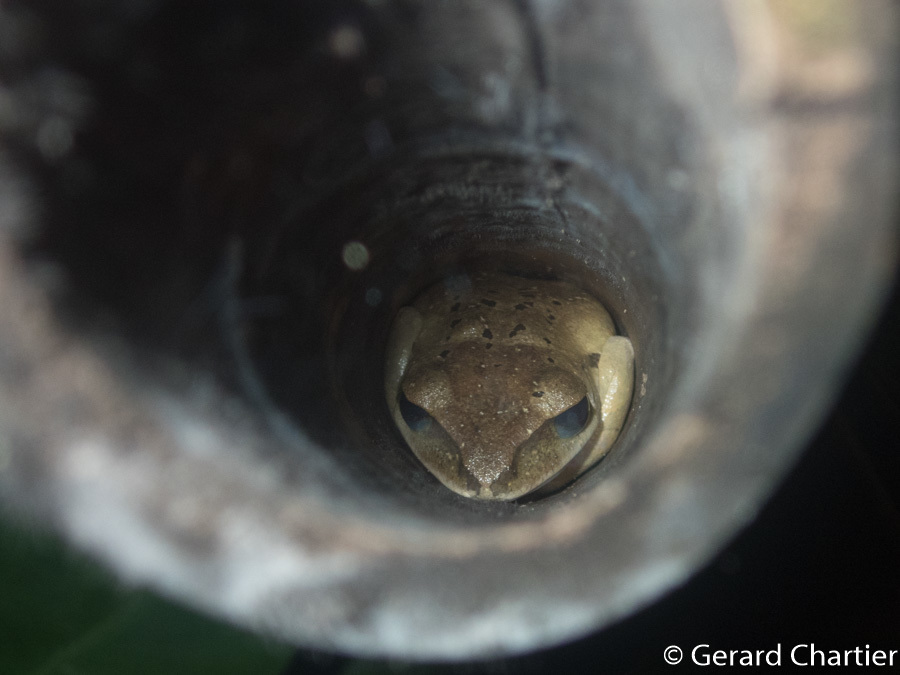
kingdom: Animalia
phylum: Chordata
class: Amphibia
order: Anura
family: Rhacophoridae
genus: Polypedates
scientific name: Polypedates megacephalus
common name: Hong kong whipping frog
